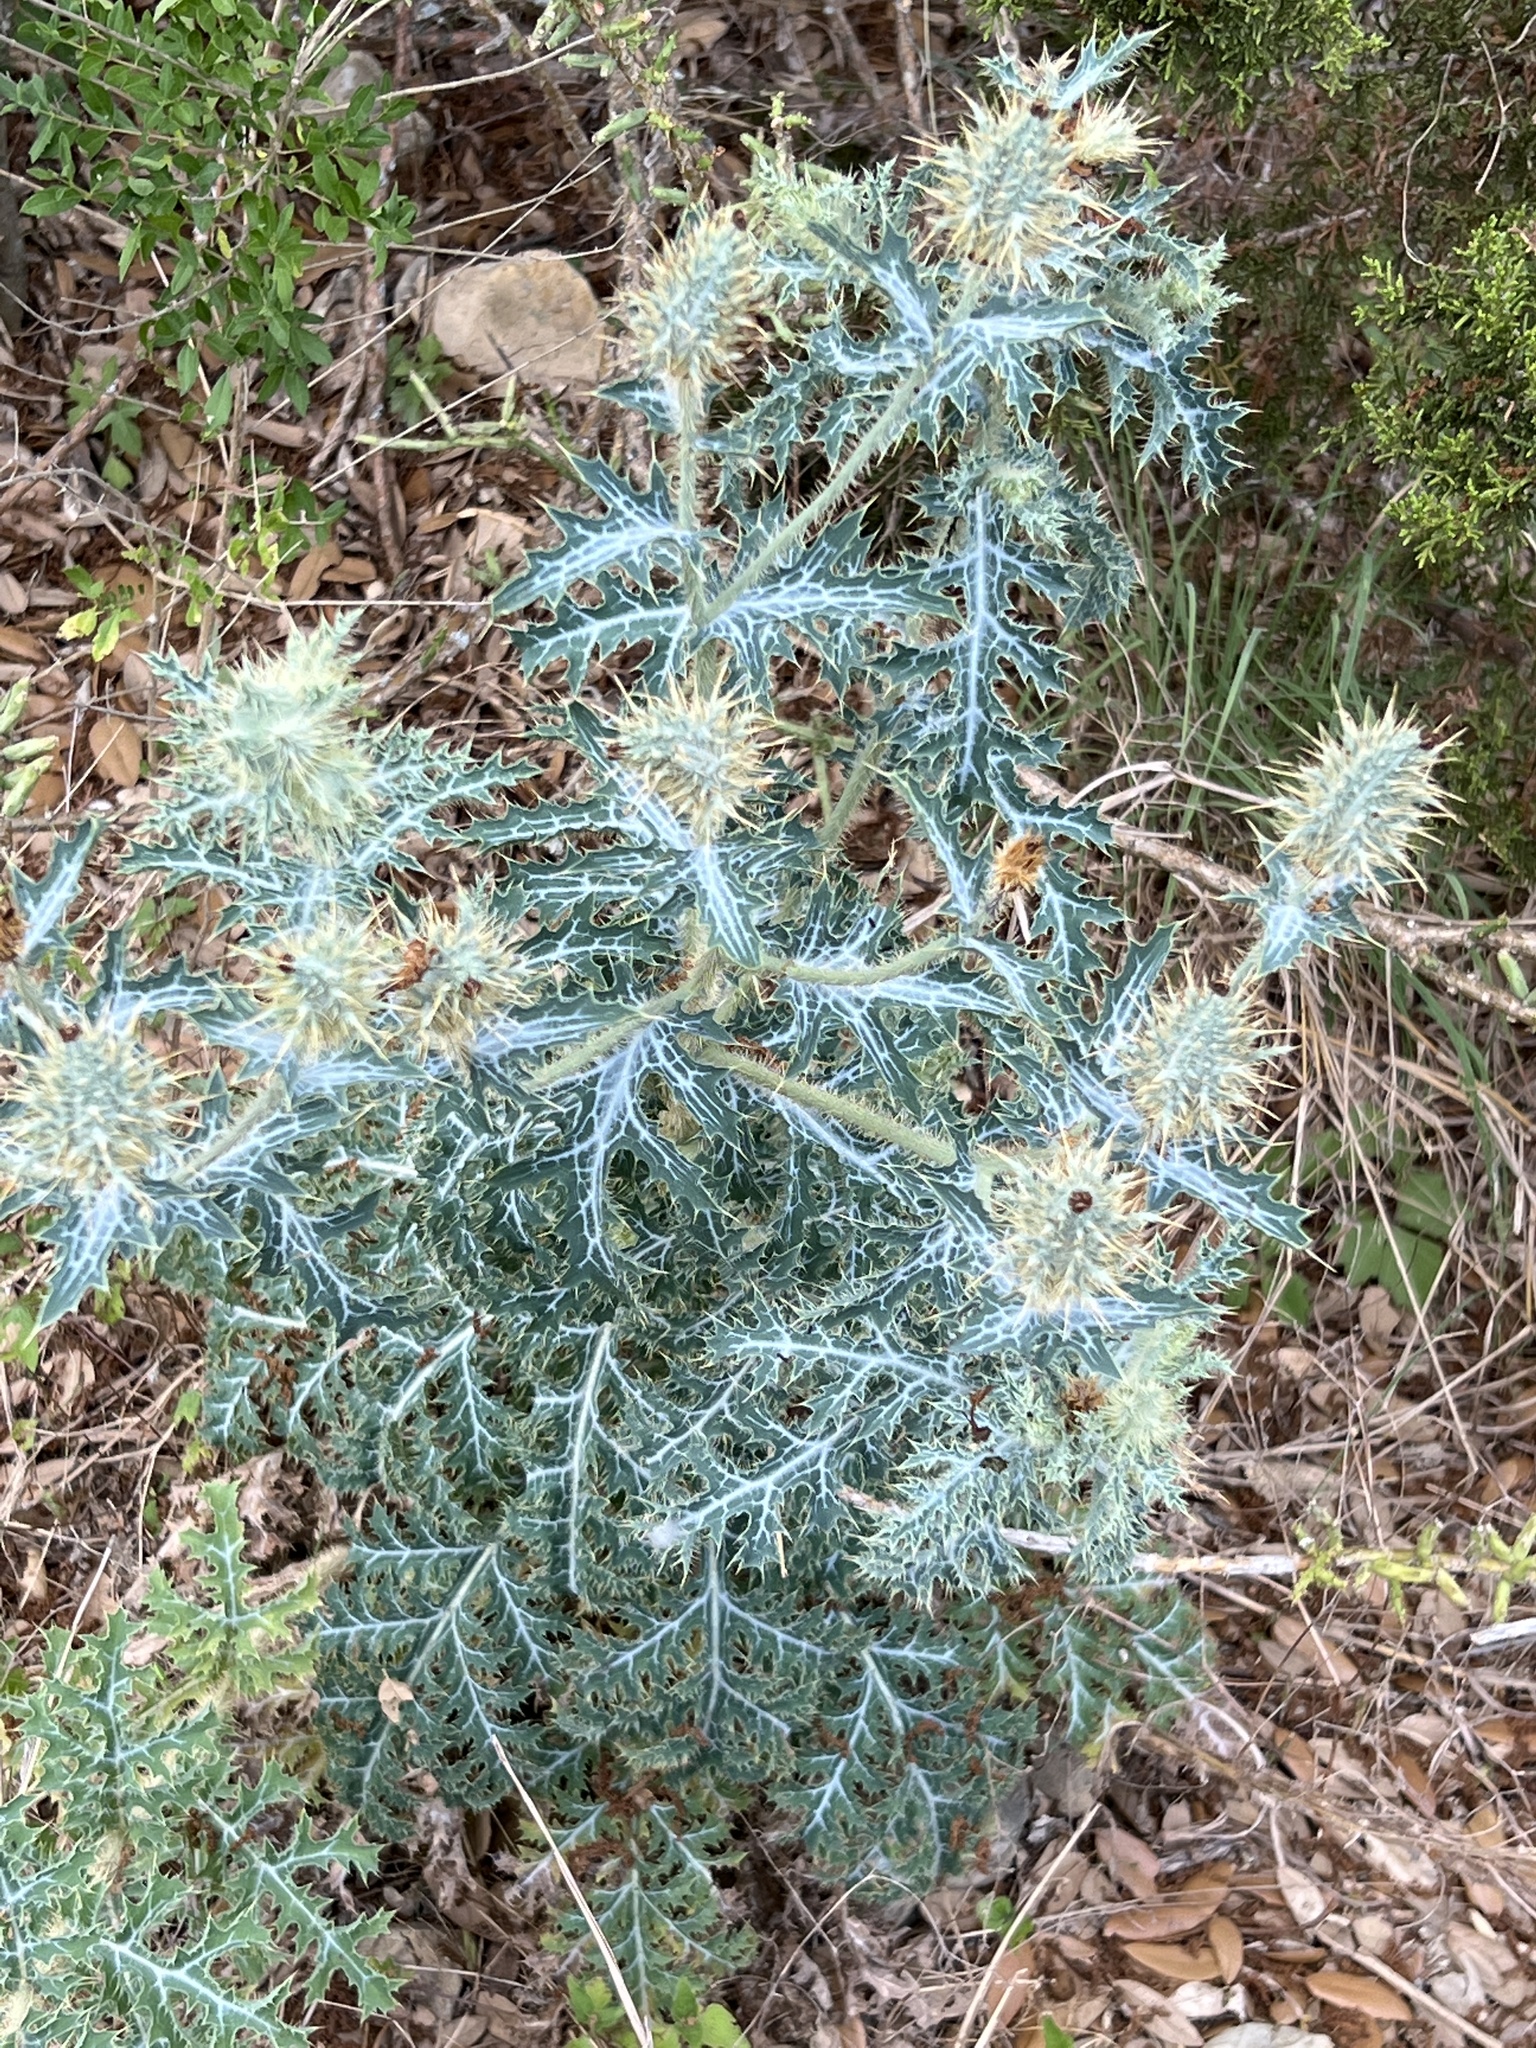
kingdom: Plantae
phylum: Tracheophyta
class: Magnoliopsida
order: Ranunculales
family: Papaveraceae
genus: Argemone
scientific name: Argemone aurantiaca
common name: Texas prickly-poppy
